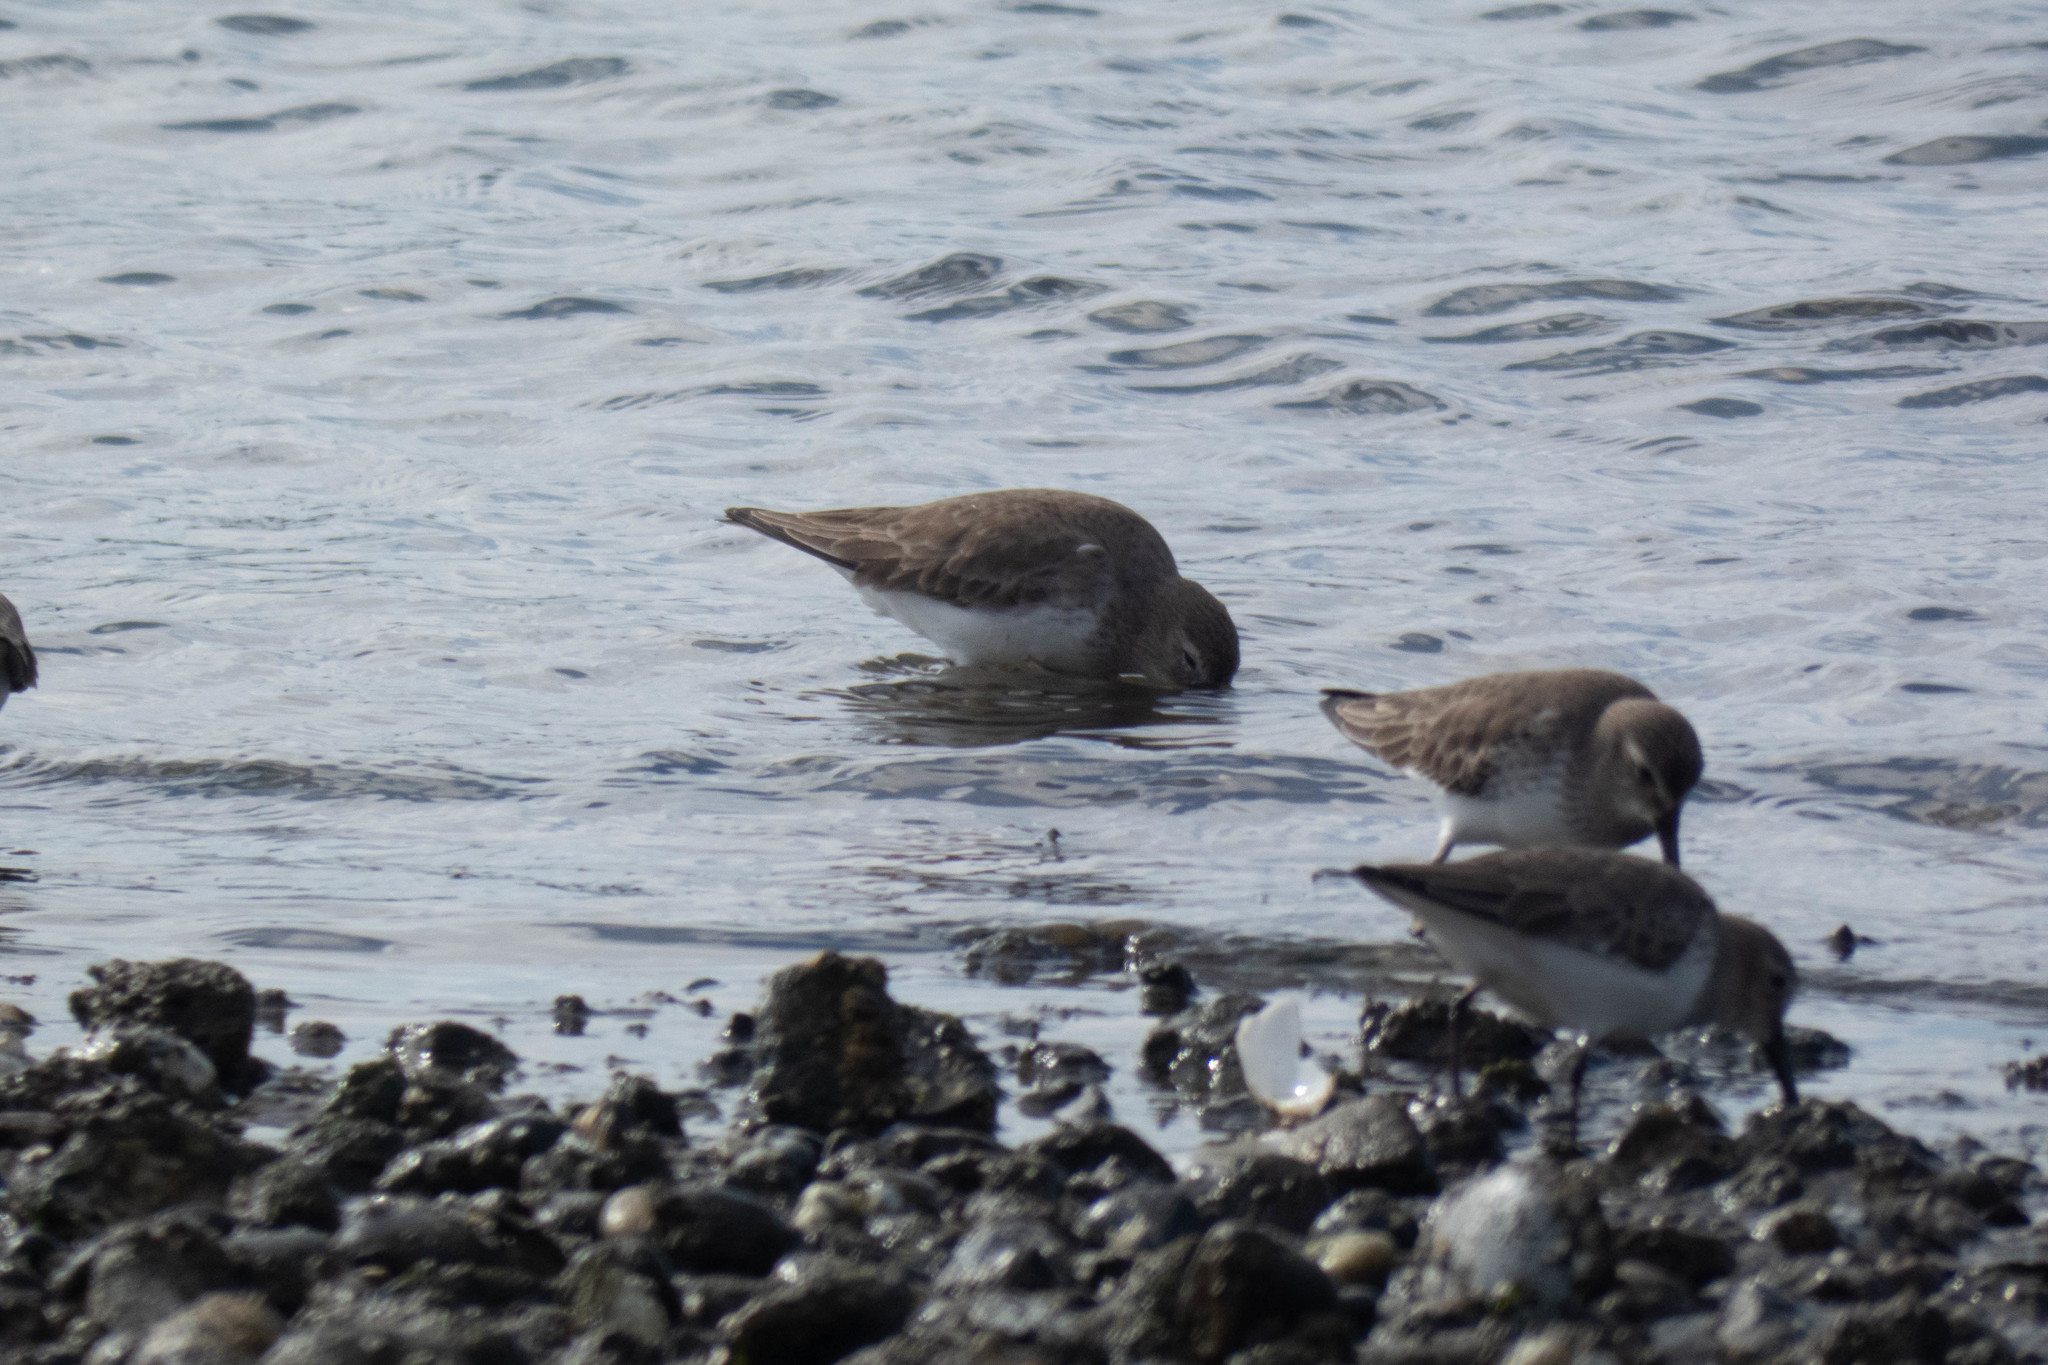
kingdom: Animalia
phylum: Chordata
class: Aves
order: Charadriiformes
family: Scolopacidae
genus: Calidris
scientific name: Calidris alpina
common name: Dunlin
